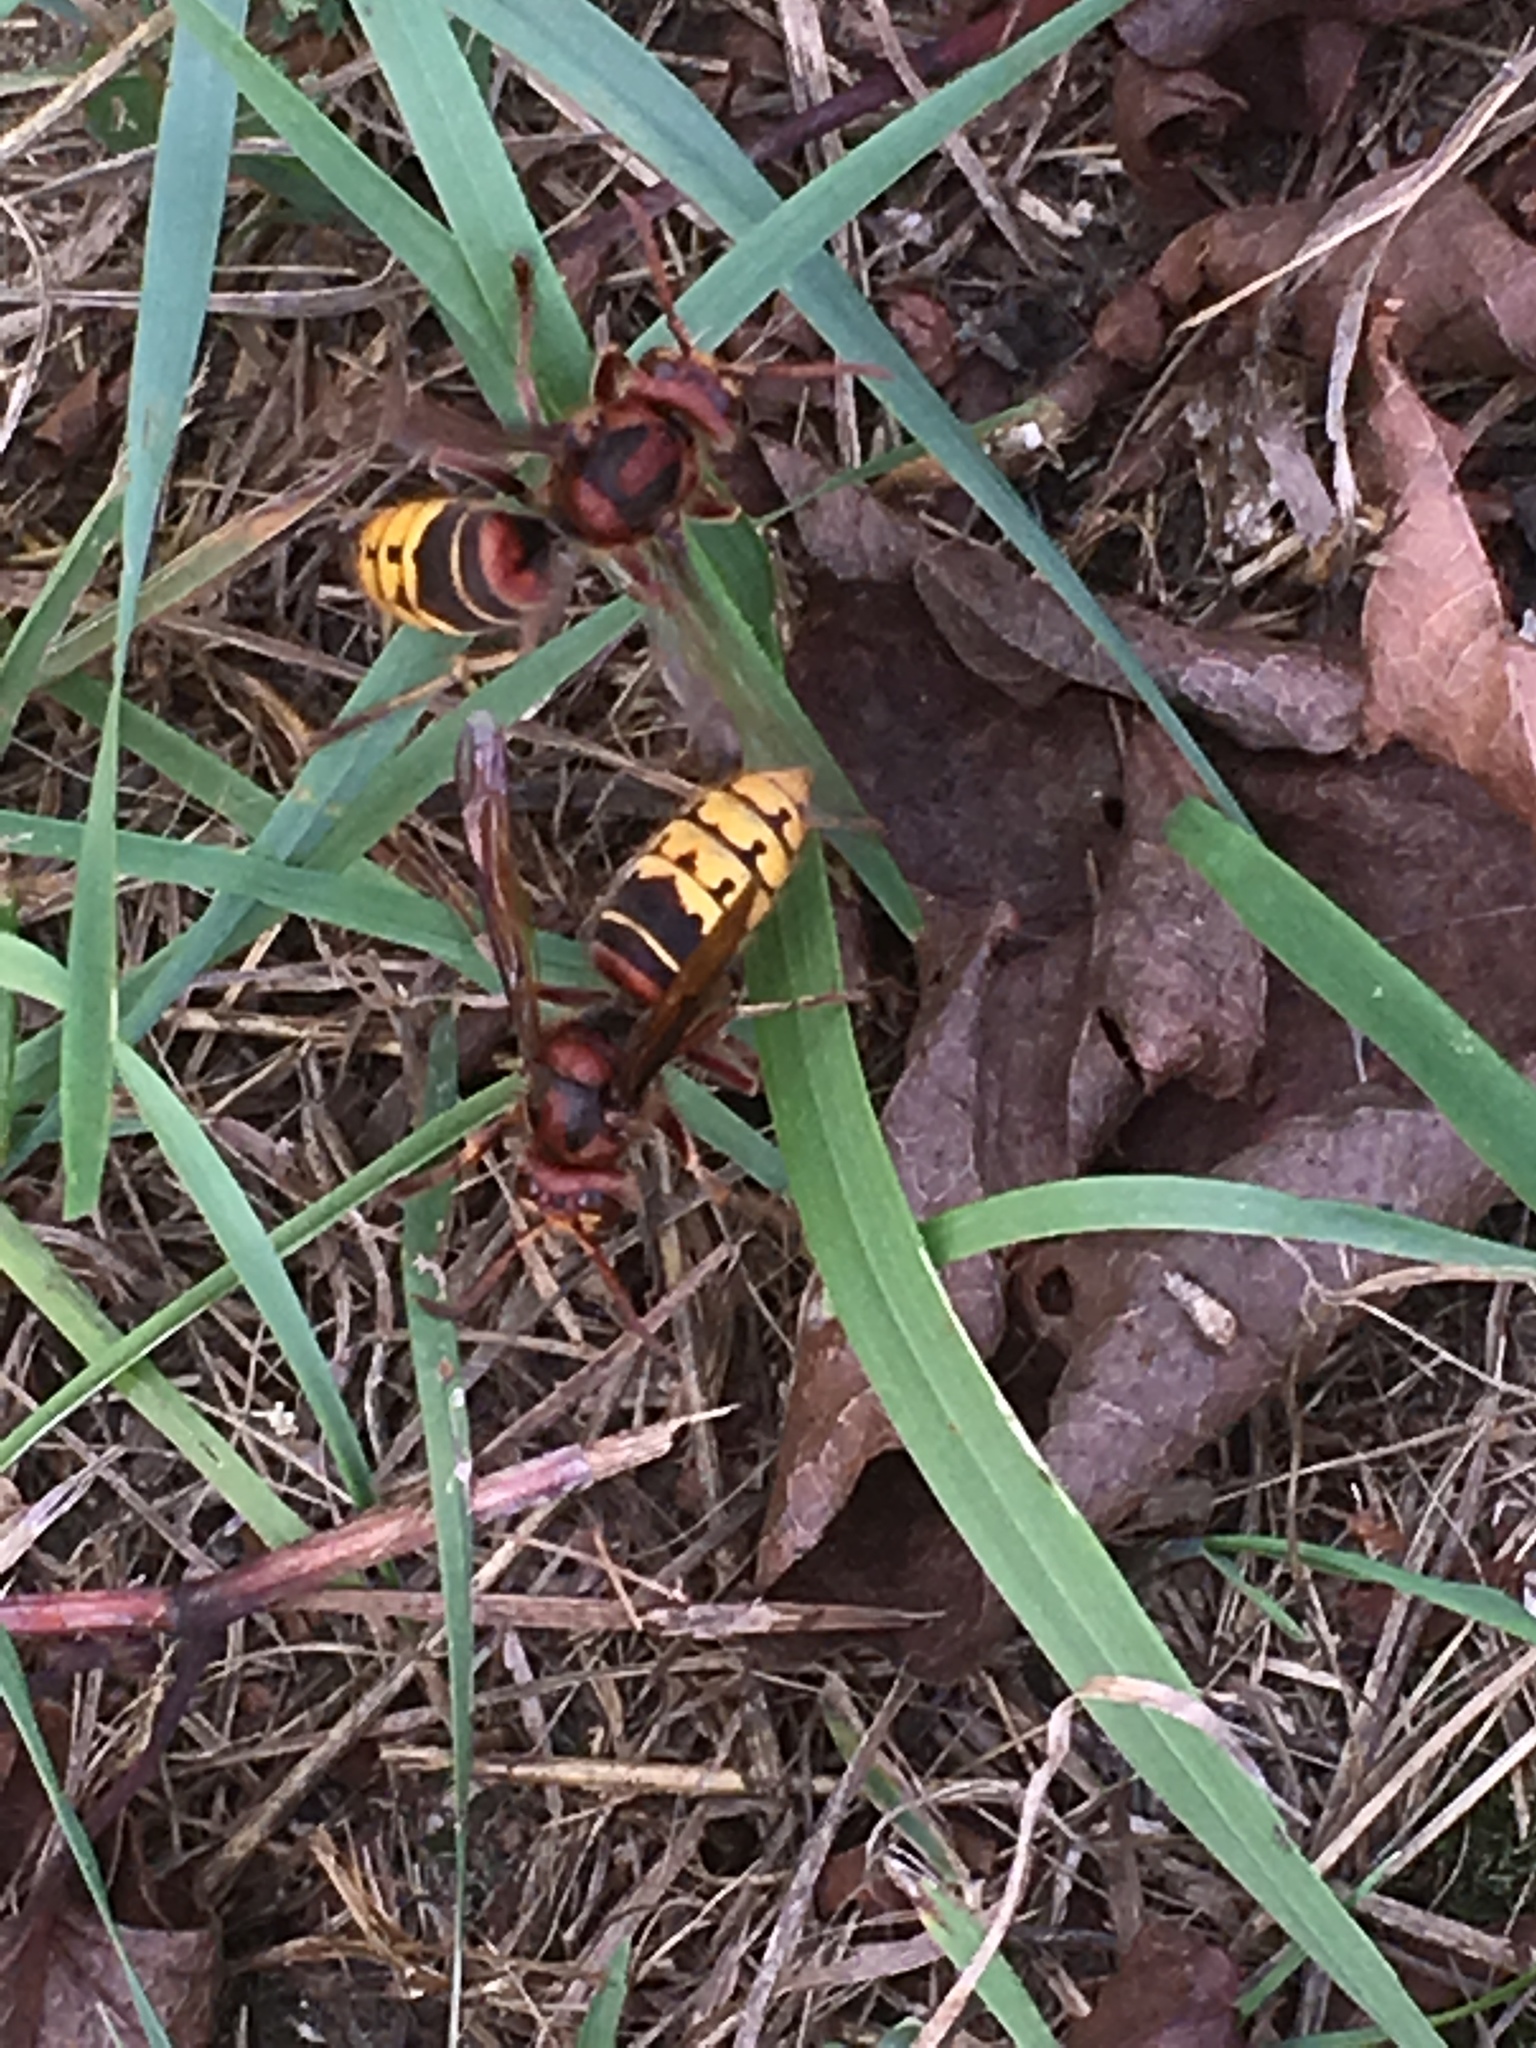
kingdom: Animalia
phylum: Arthropoda
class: Insecta
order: Hymenoptera
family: Vespidae
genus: Vespa
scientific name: Vespa crabro
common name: Hornet
